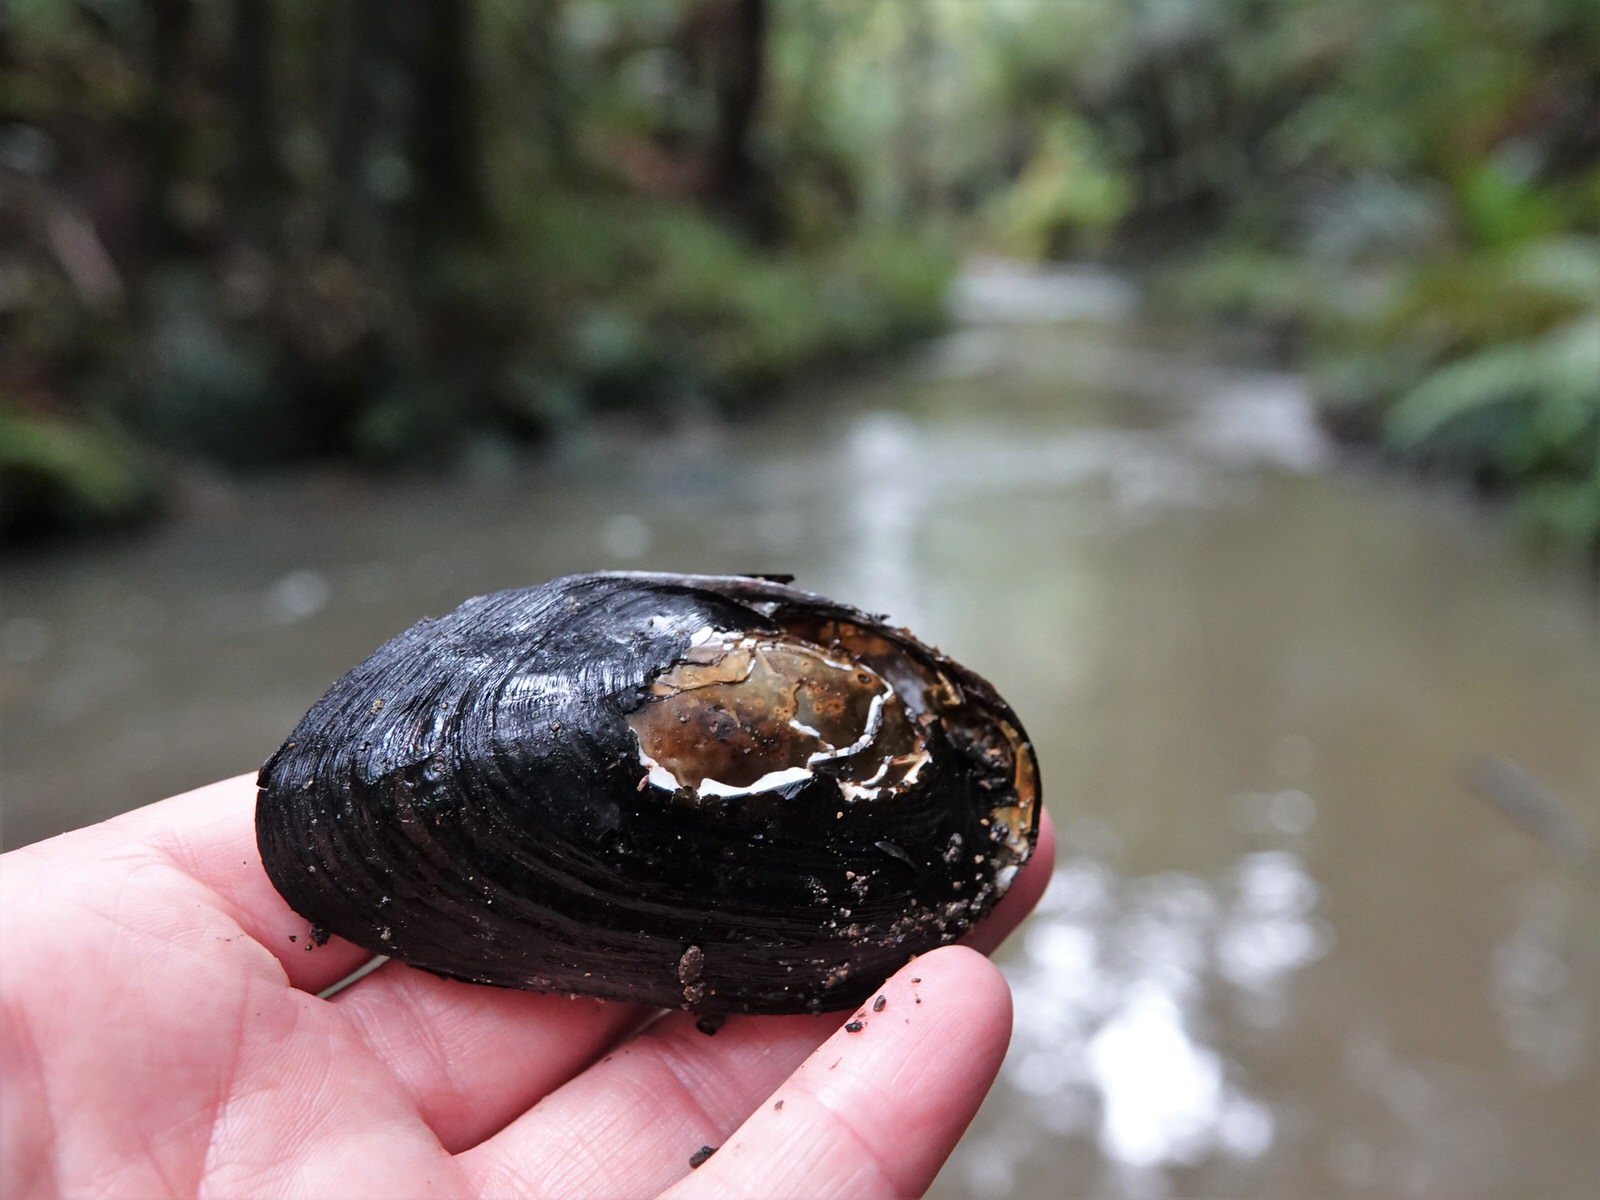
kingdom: Animalia
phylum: Mollusca
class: Bivalvia
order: Unionida
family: Hyriidae
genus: Echyridella
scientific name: Echyridella menziesii
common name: New zealand freshwater mussel
